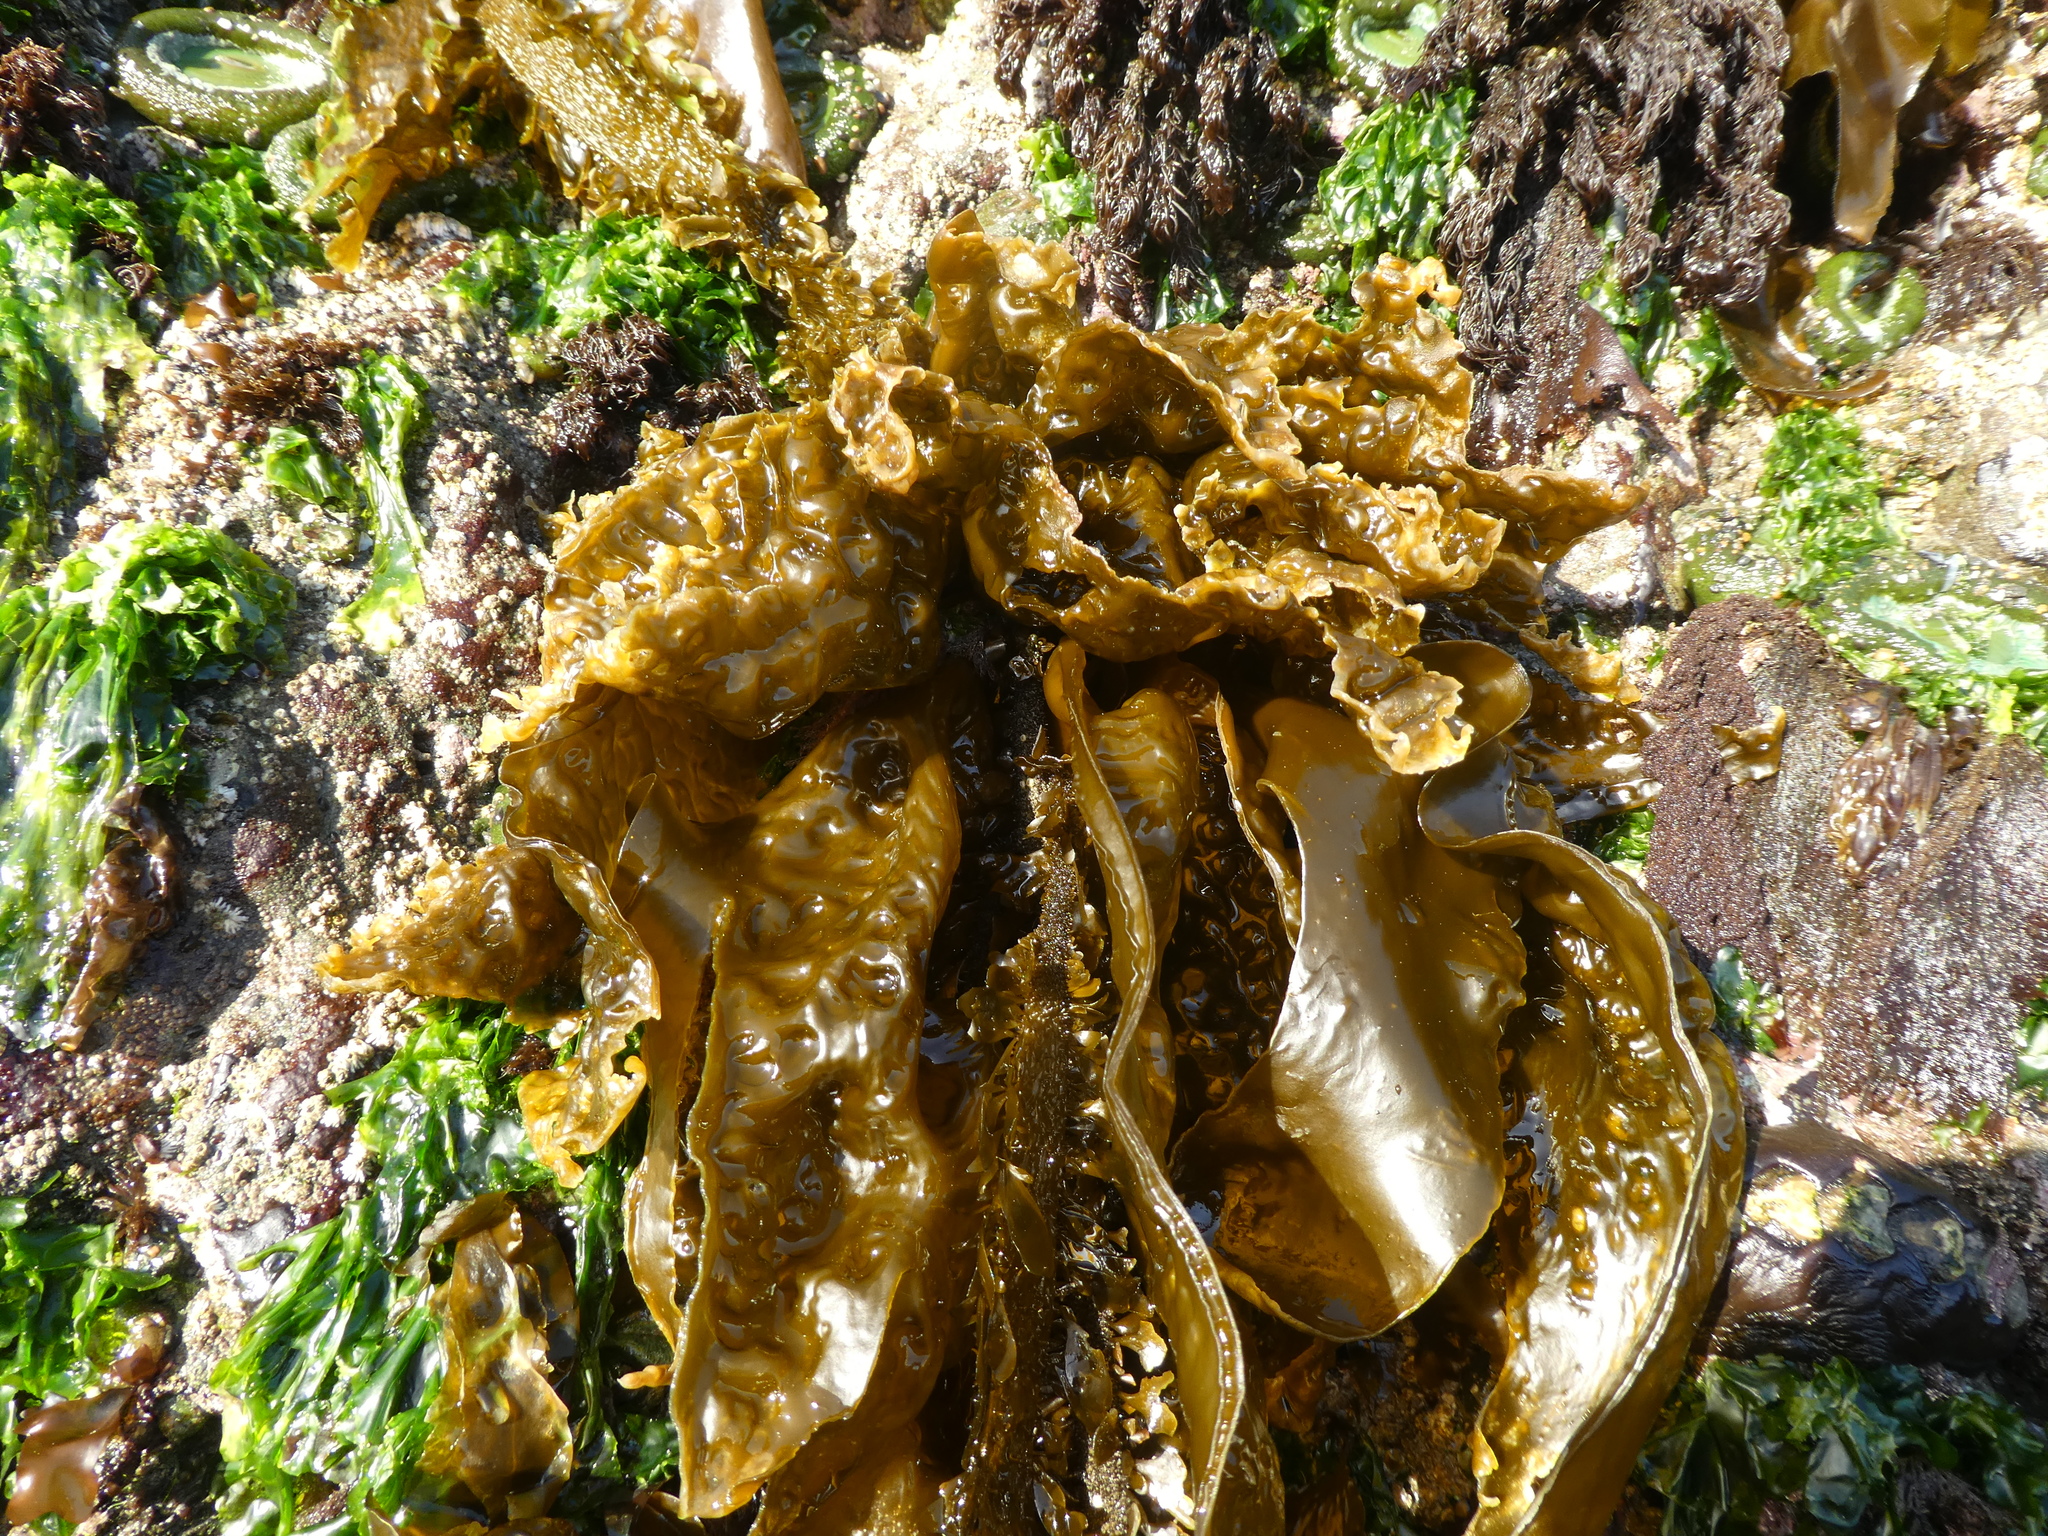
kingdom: Chromista
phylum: Ochrophyta
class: Phaeophyceae
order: Laminariales
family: Laminariaceae
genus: Hedophyllum
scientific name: Hedophyllum sessile
